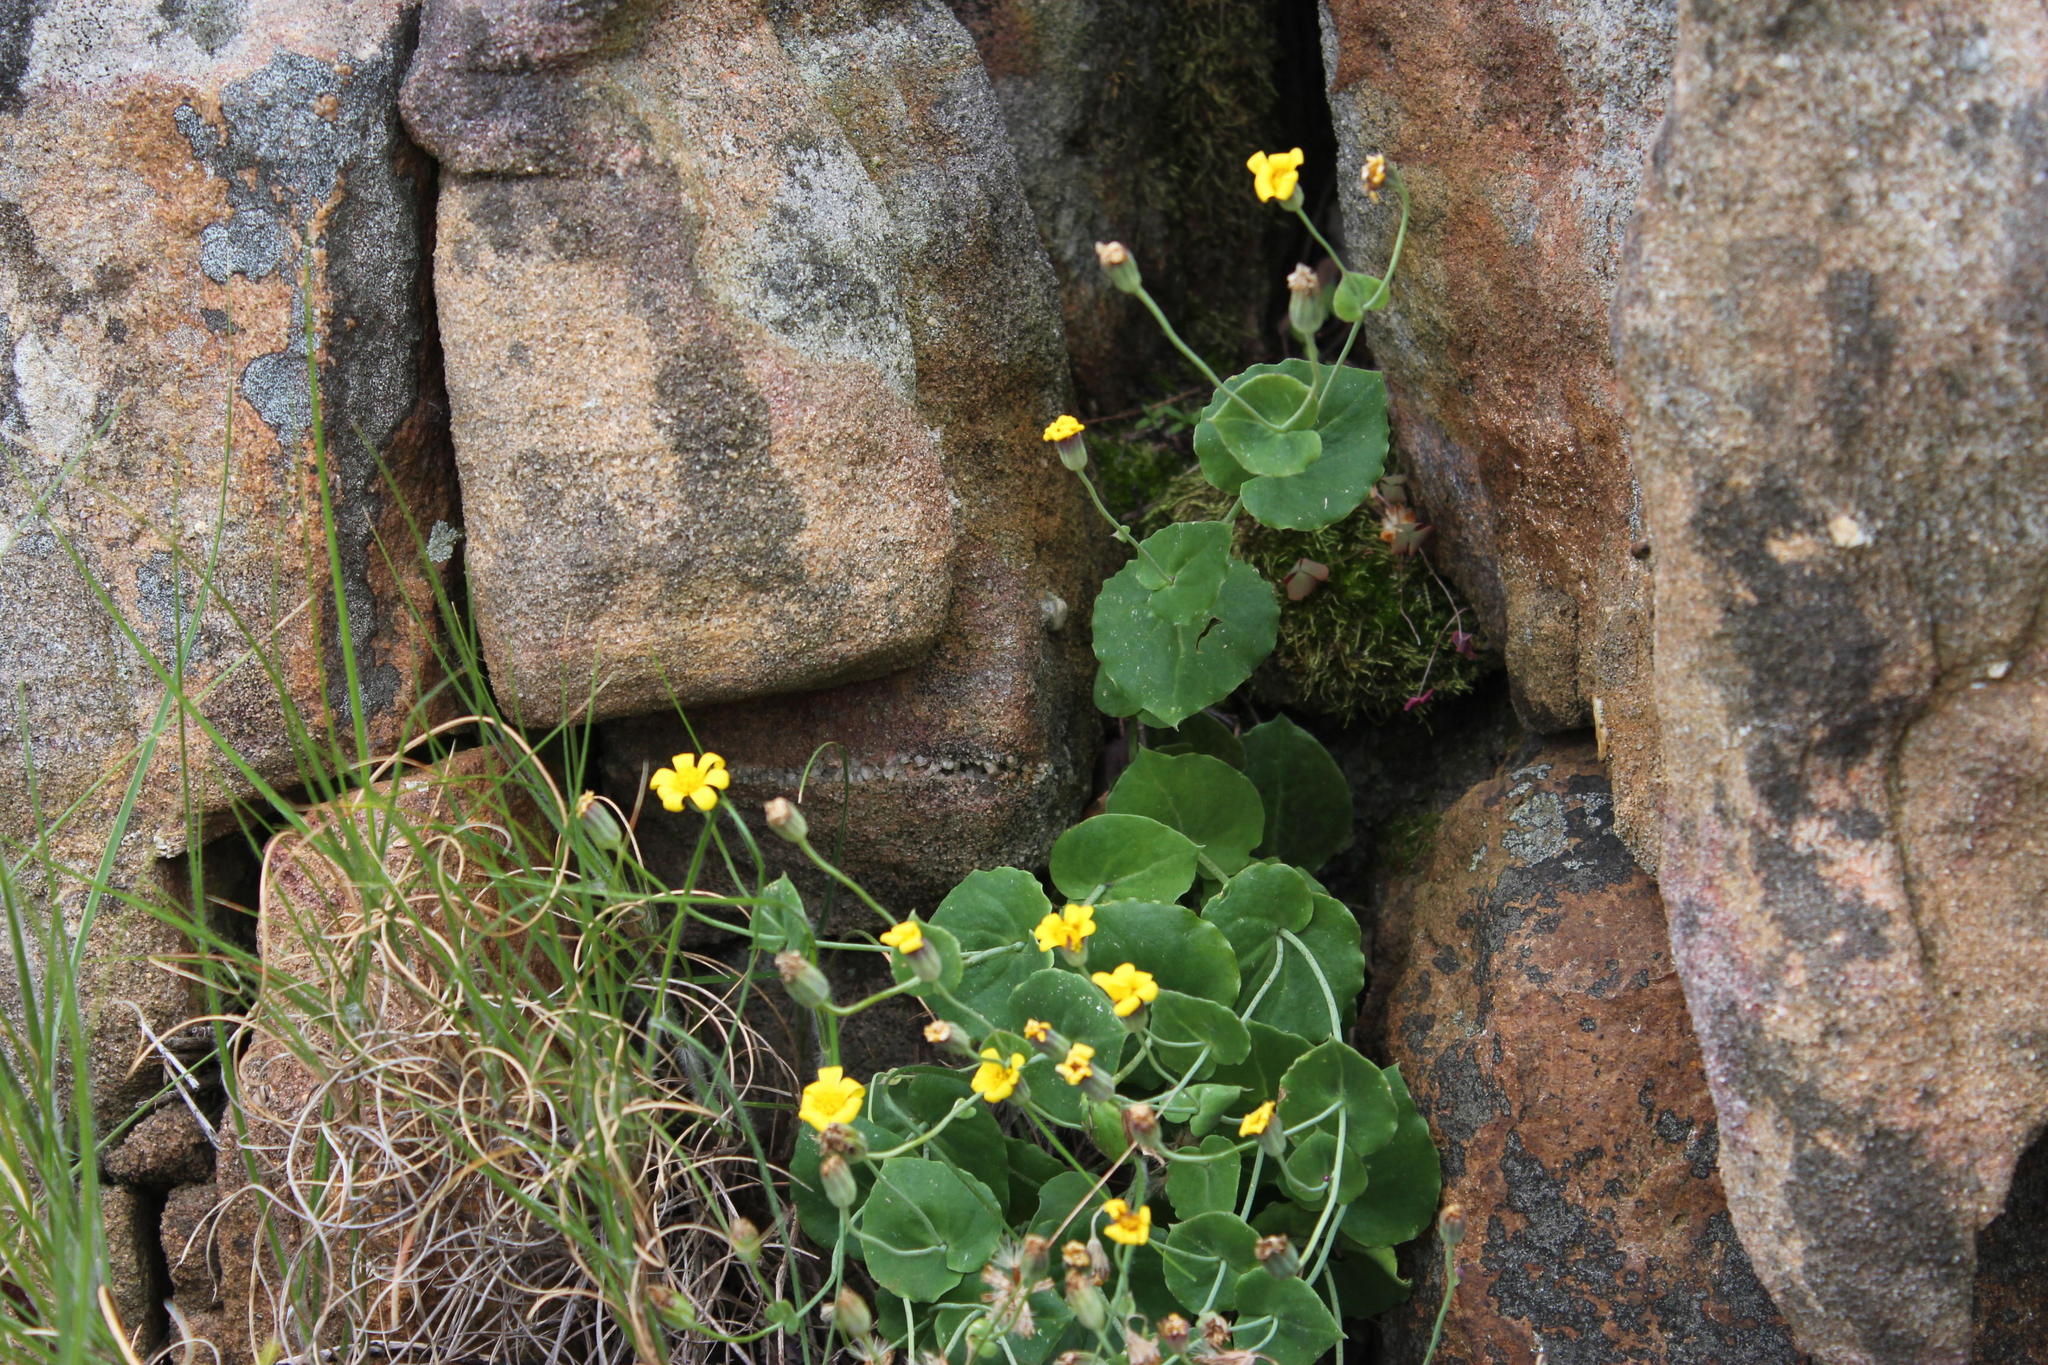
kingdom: Plantae
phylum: Tracheophyta
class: Magnoliopsida
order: Asterales
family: Asteraceae
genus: Othonna
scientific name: Othonna perfoliata
